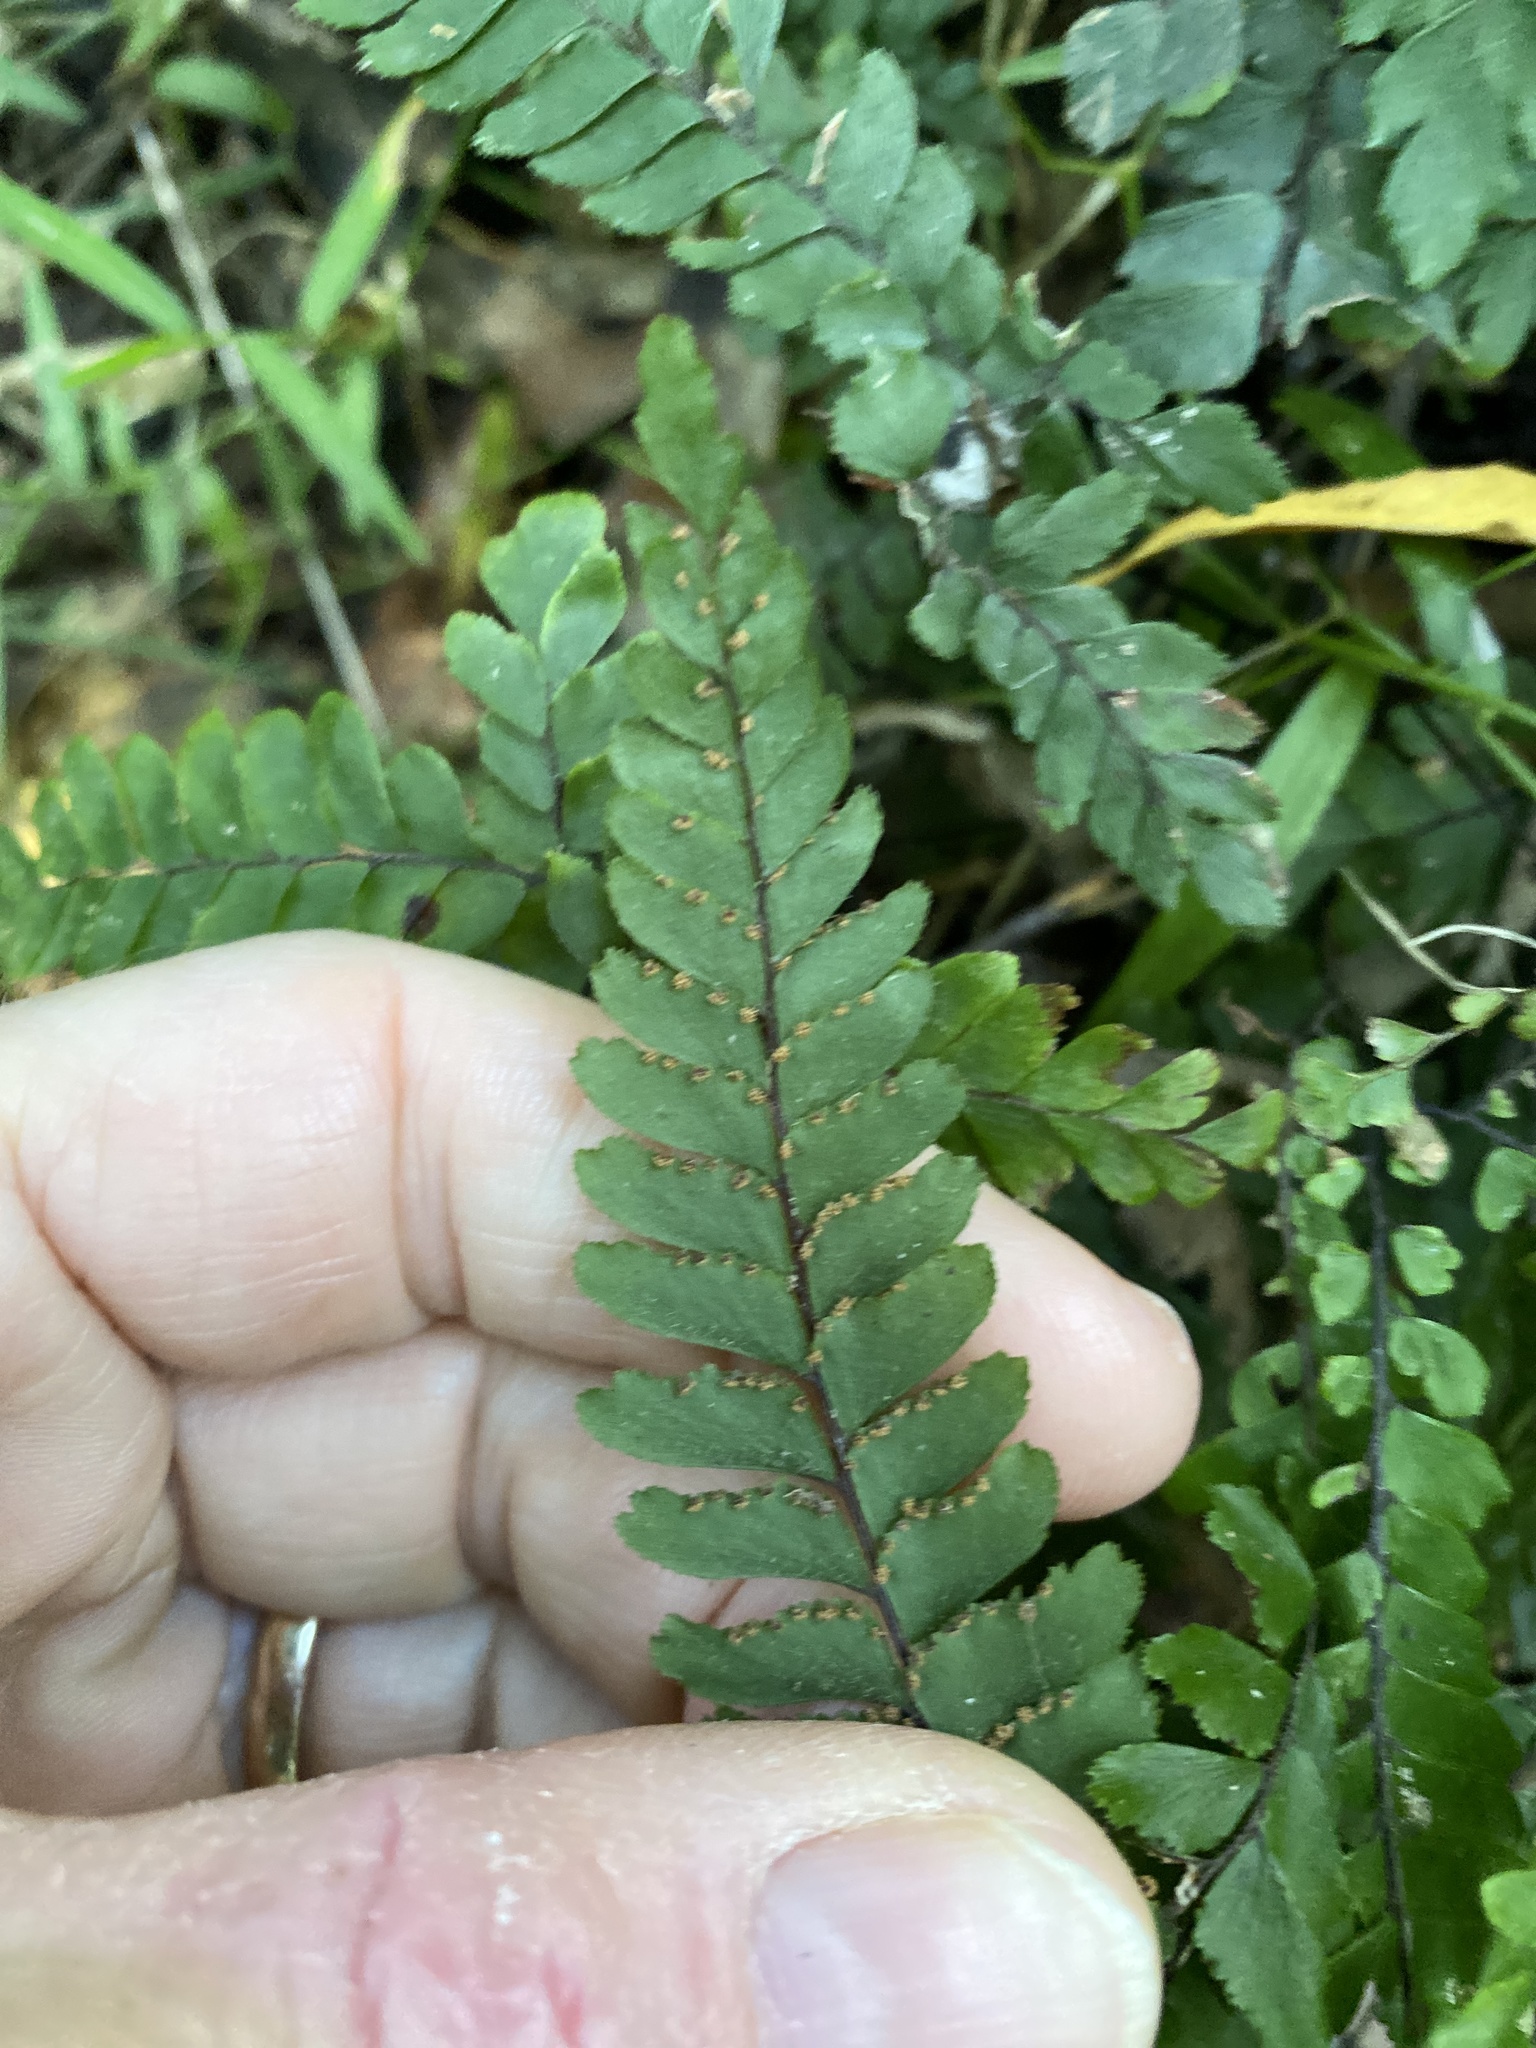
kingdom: Plantae
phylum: Tracheophyta
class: Polypodiopsida
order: Polypodiales
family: Pteridaceae
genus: Adiantum
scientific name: Adiantum hispidulum
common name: Rough maidenhair
